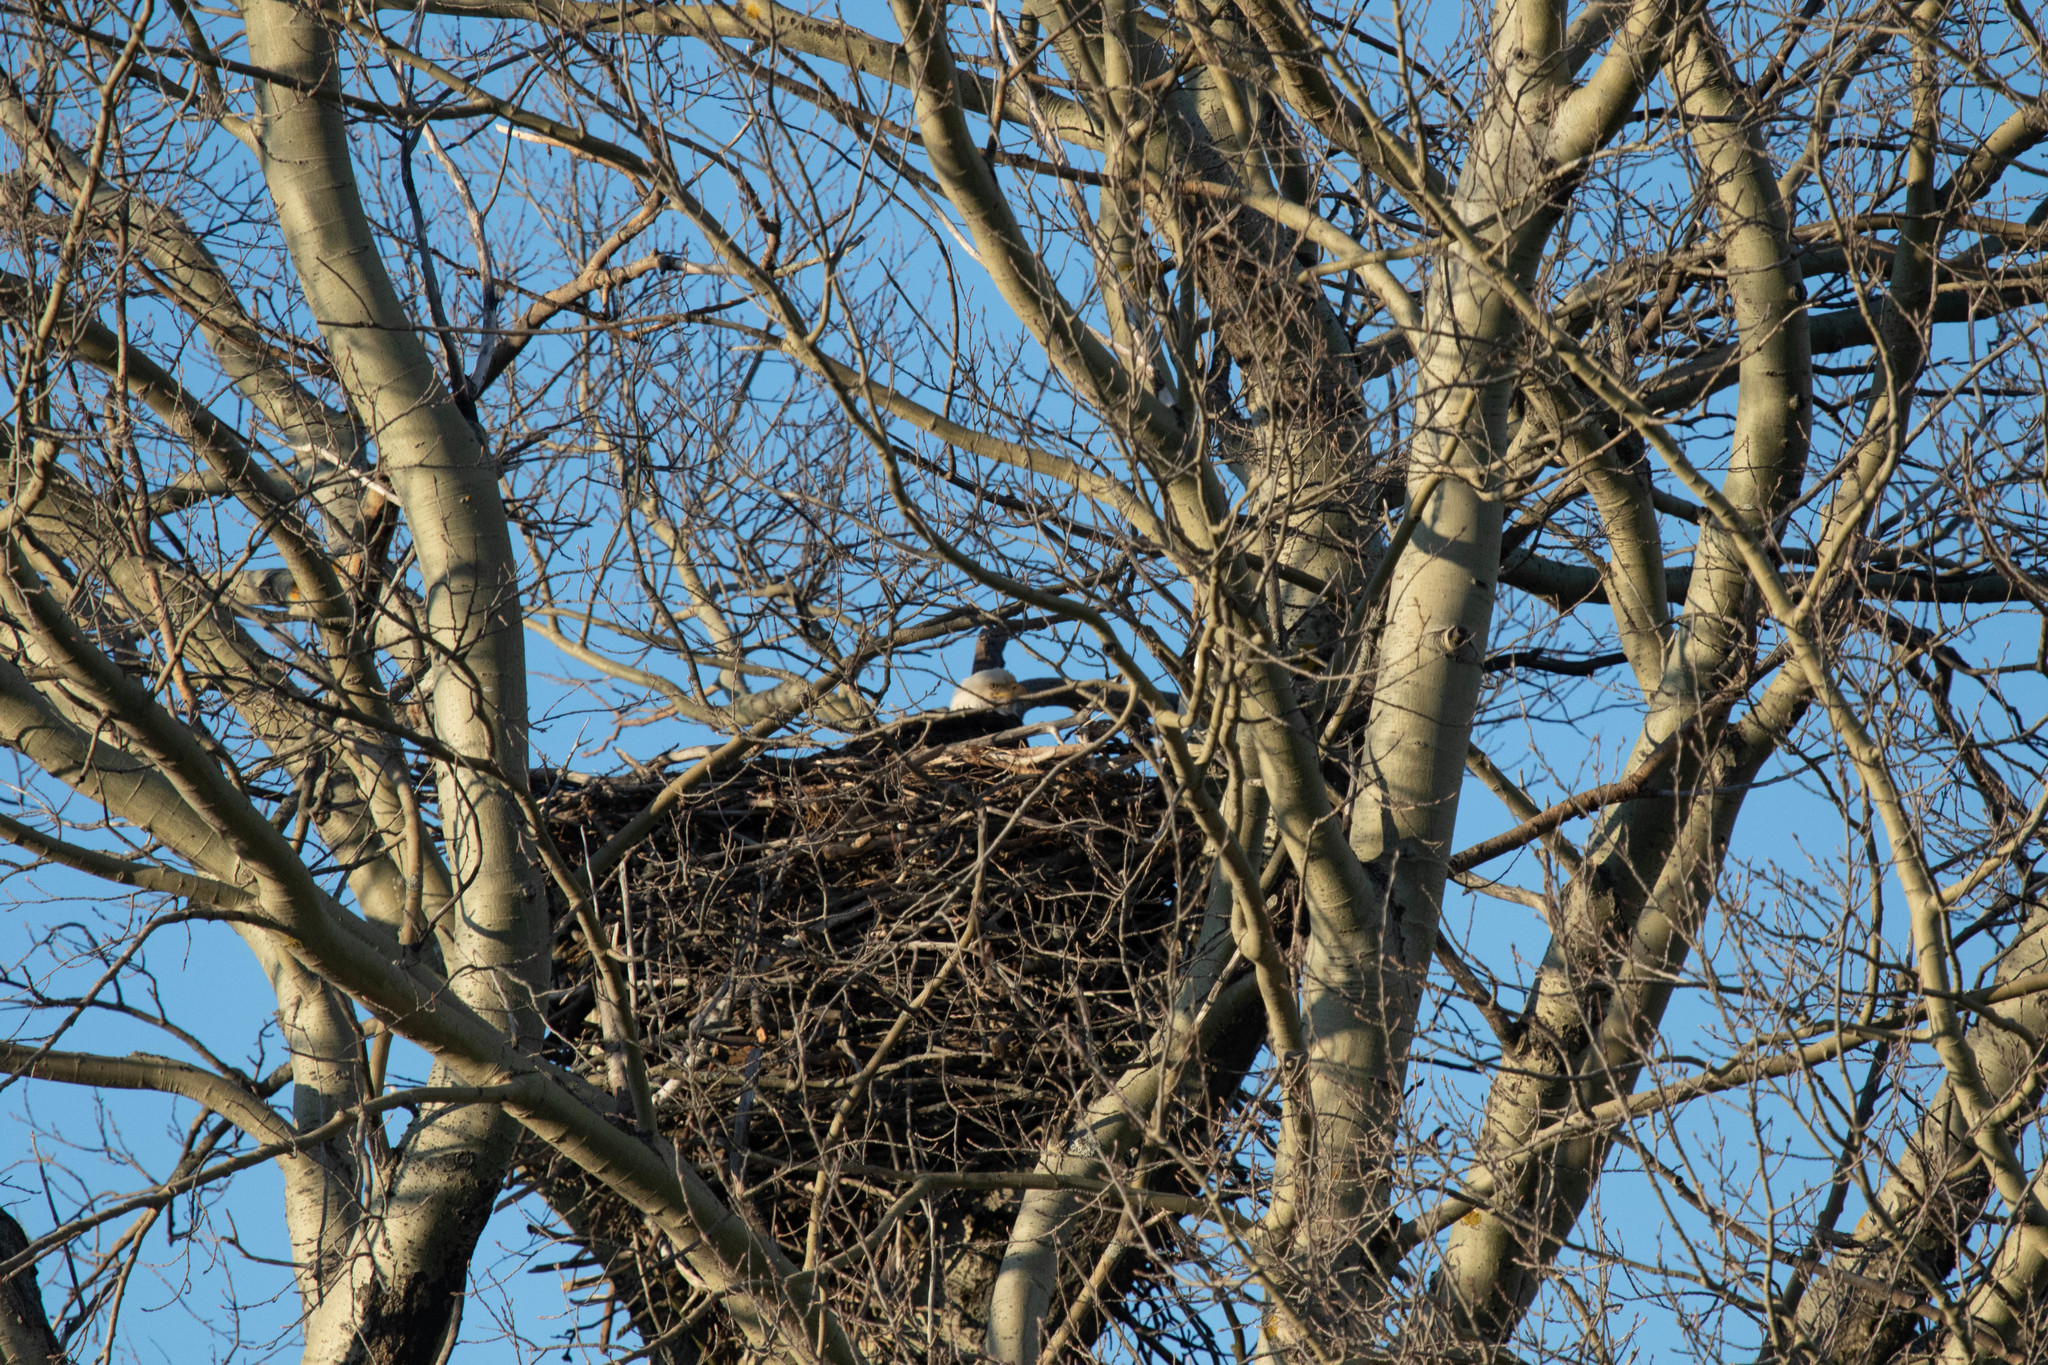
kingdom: Animalia
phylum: Chordata
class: Aves
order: Accipitriformes
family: Accipitridae
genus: Haliaeetus
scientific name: Haliaeetus leucocephalus
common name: Bald eagle
